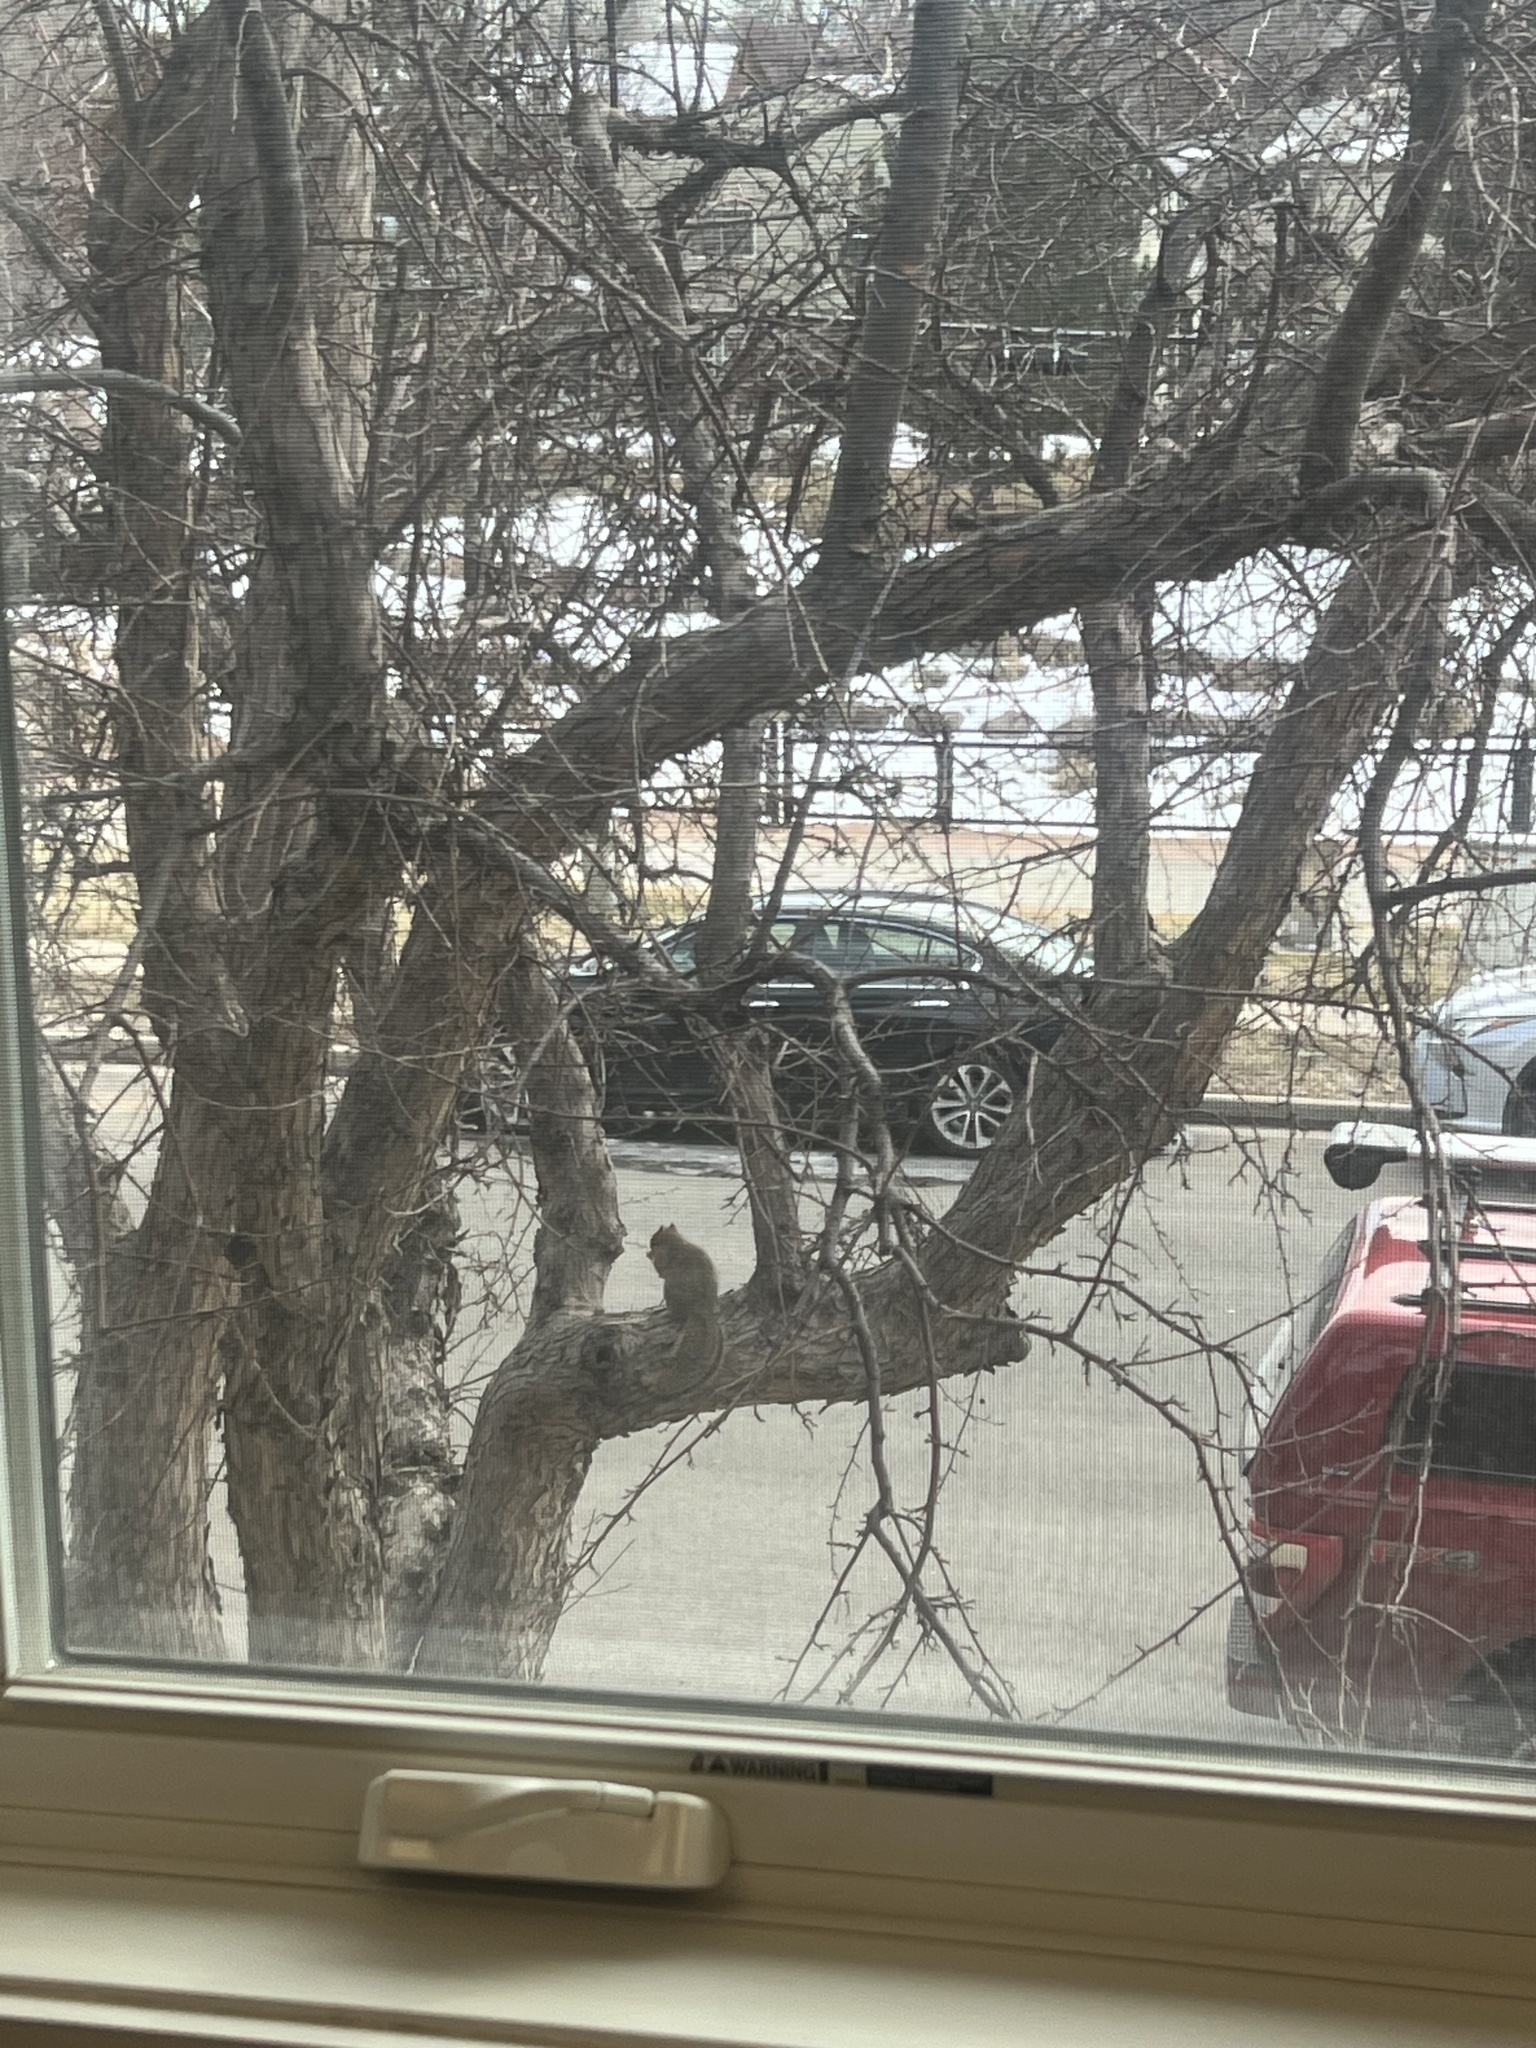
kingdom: Animalia
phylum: Chordata
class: Mammalia
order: Rodentia
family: Sciuridae
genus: Sciurus
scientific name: Sciurus niger
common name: Fox squirrel
